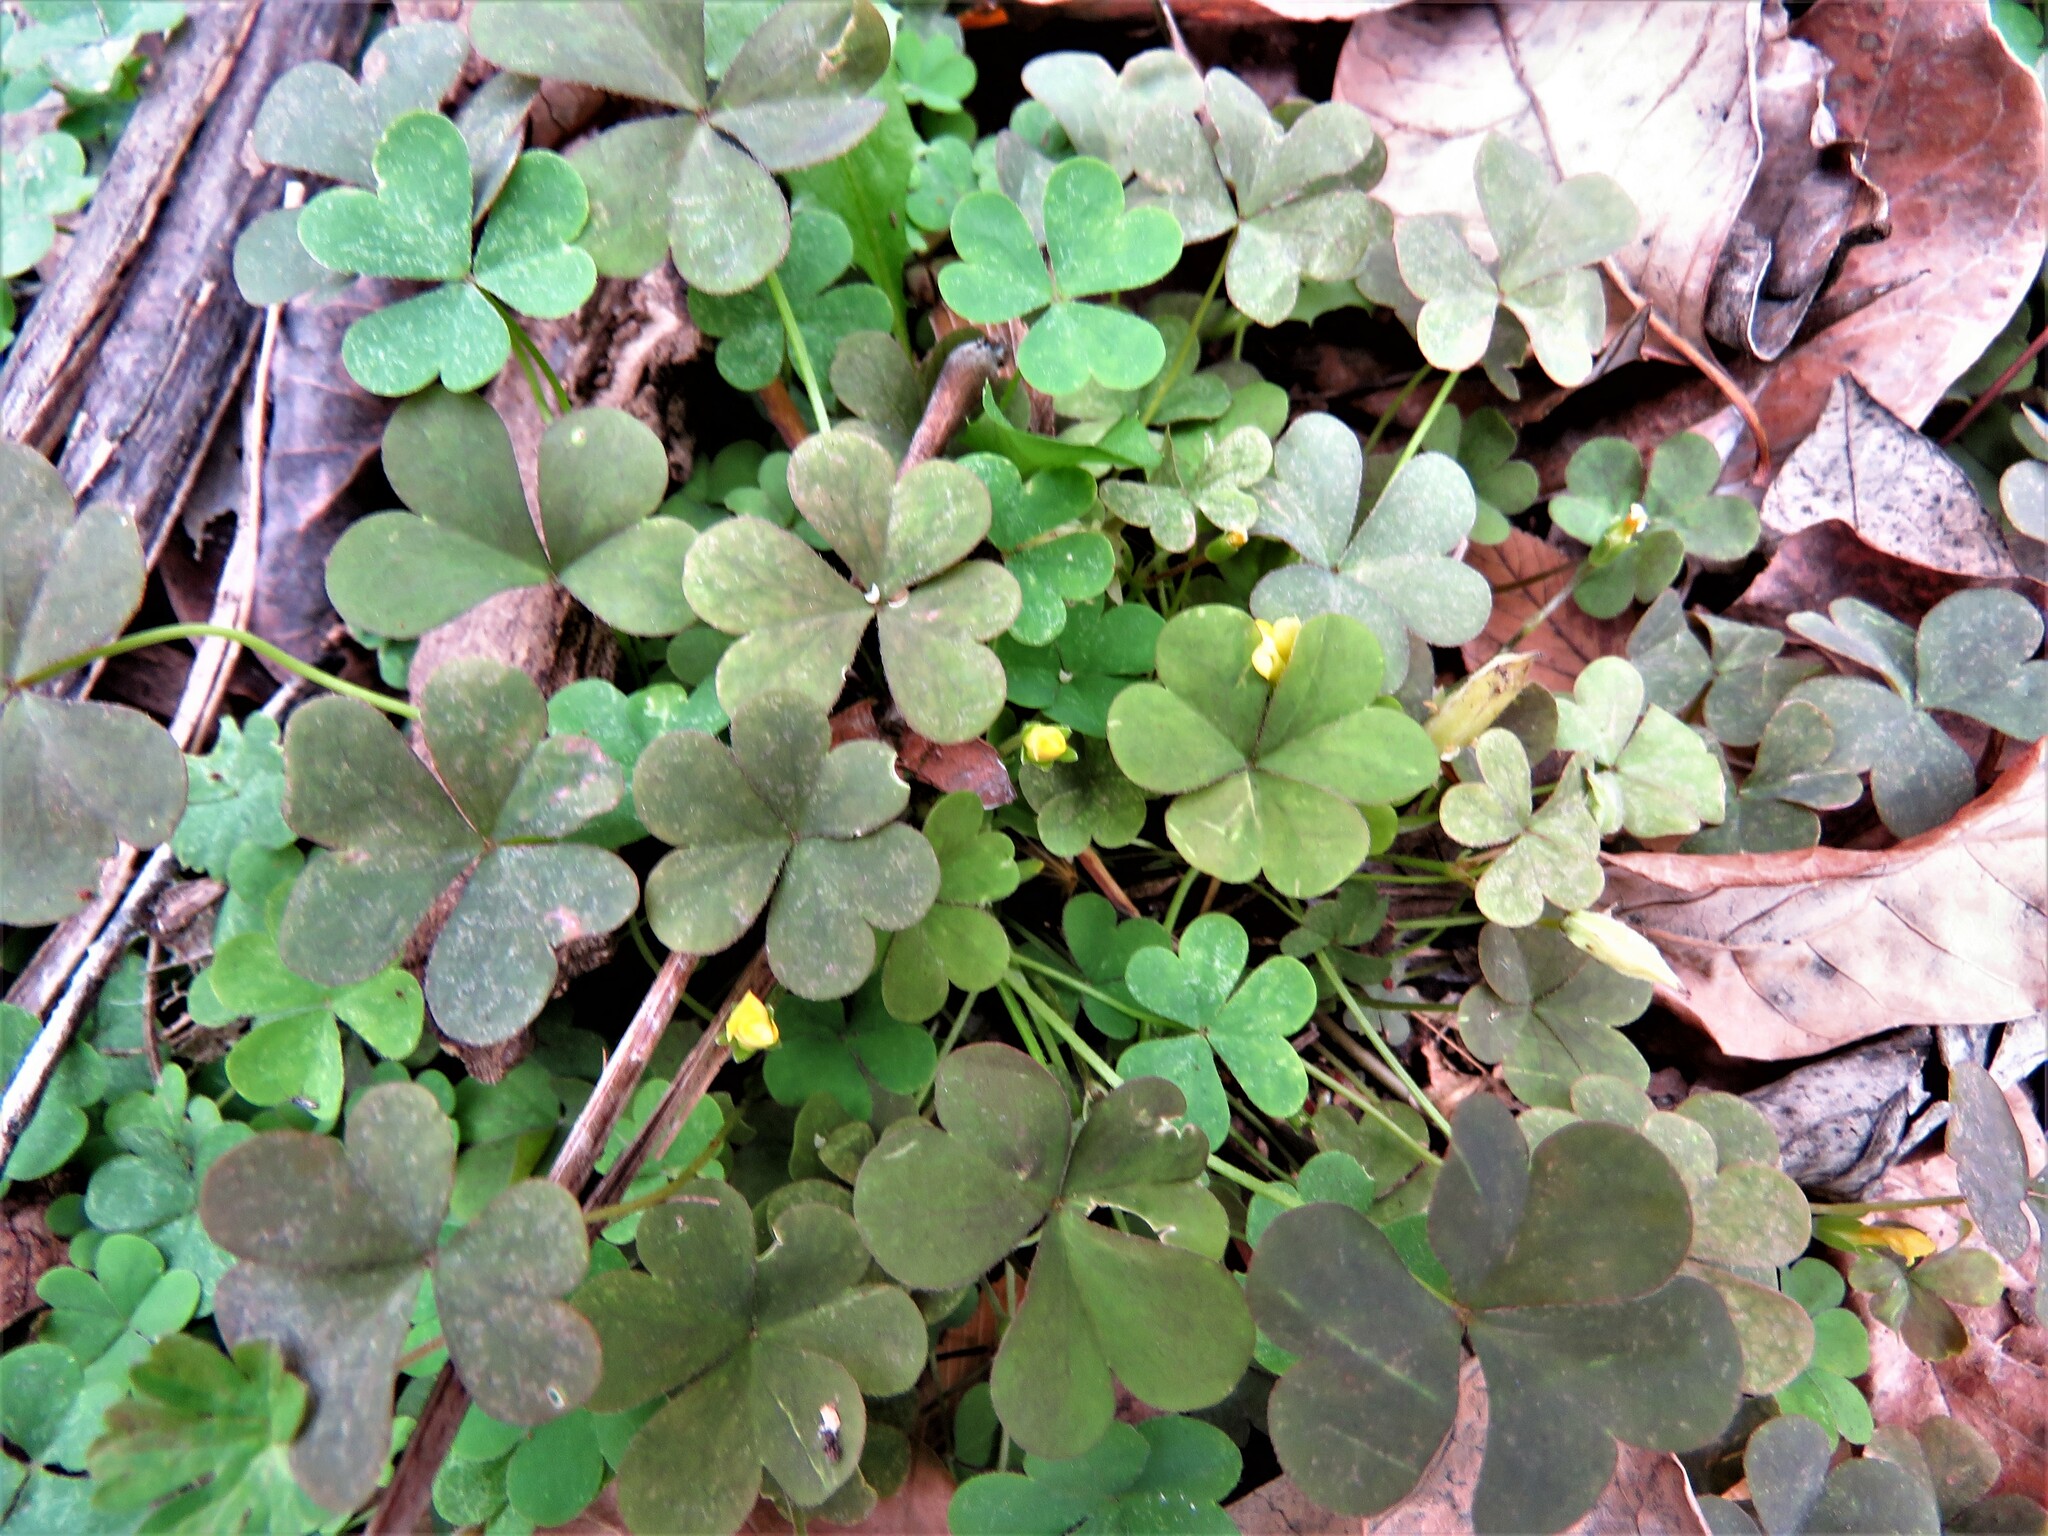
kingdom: Plantae
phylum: Tracheophyta
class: Magnoliopsida
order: Oxalidales
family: Oxalidaceae
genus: Oxalis
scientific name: Oxalis dillenii
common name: Sussex yellow-sorrel
